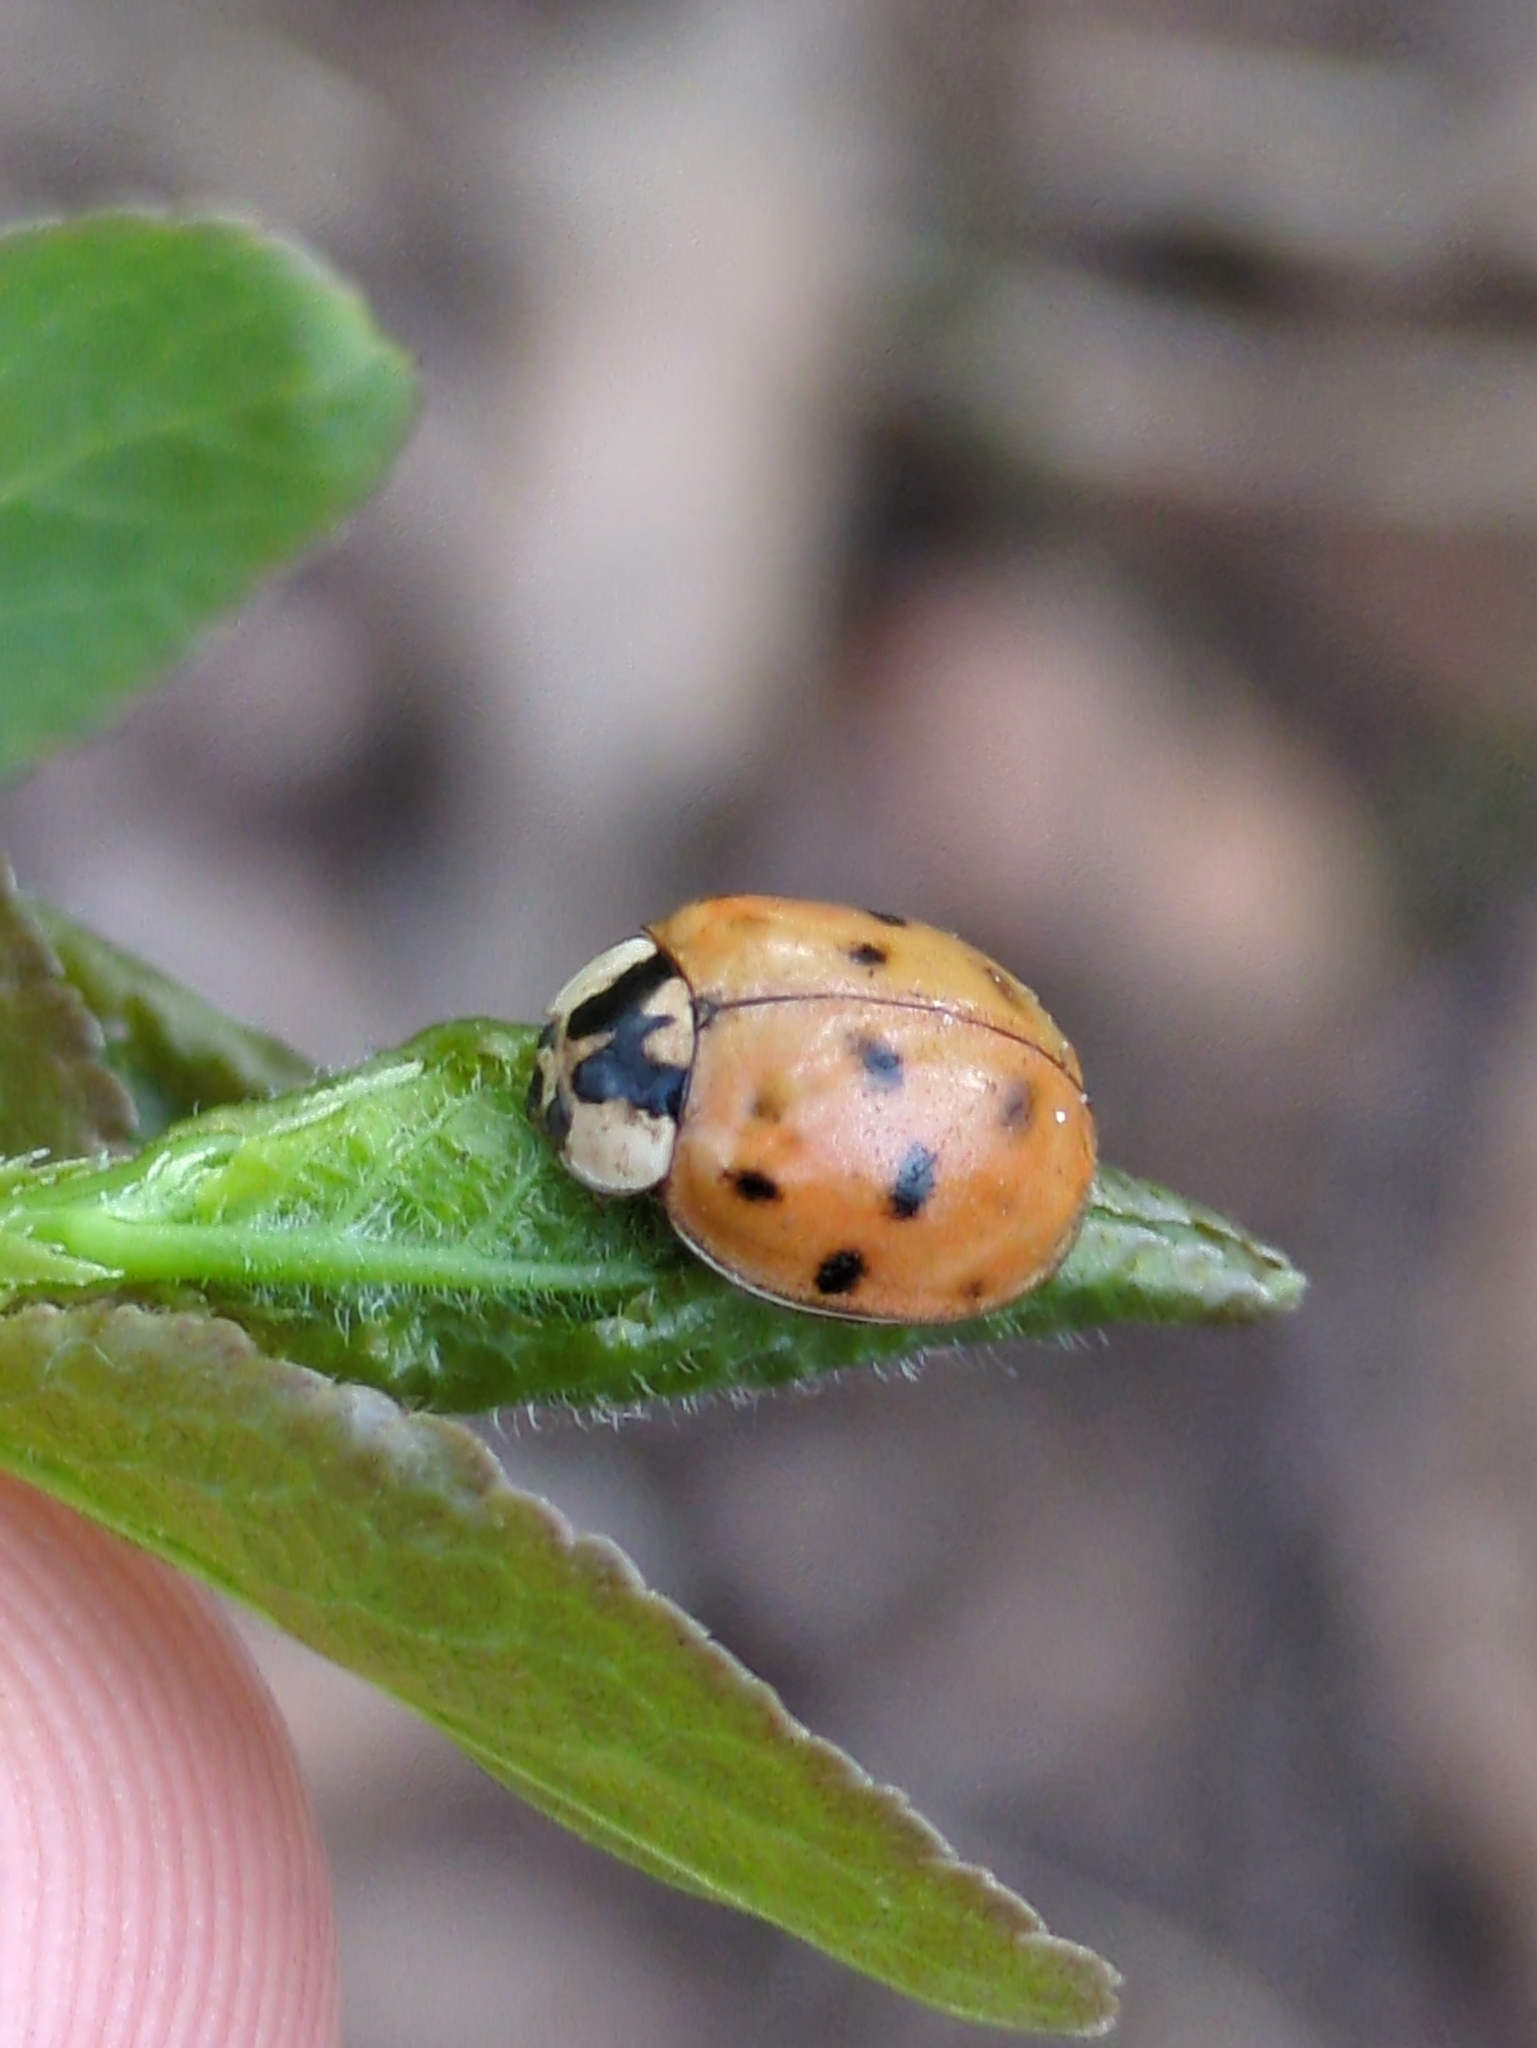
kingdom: Animalia
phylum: Arthropoda
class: Insecta
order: Coleoptera
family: Coccinellidae
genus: Harmonia
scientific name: Harmonia axyridis
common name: Harlequin ladybird
